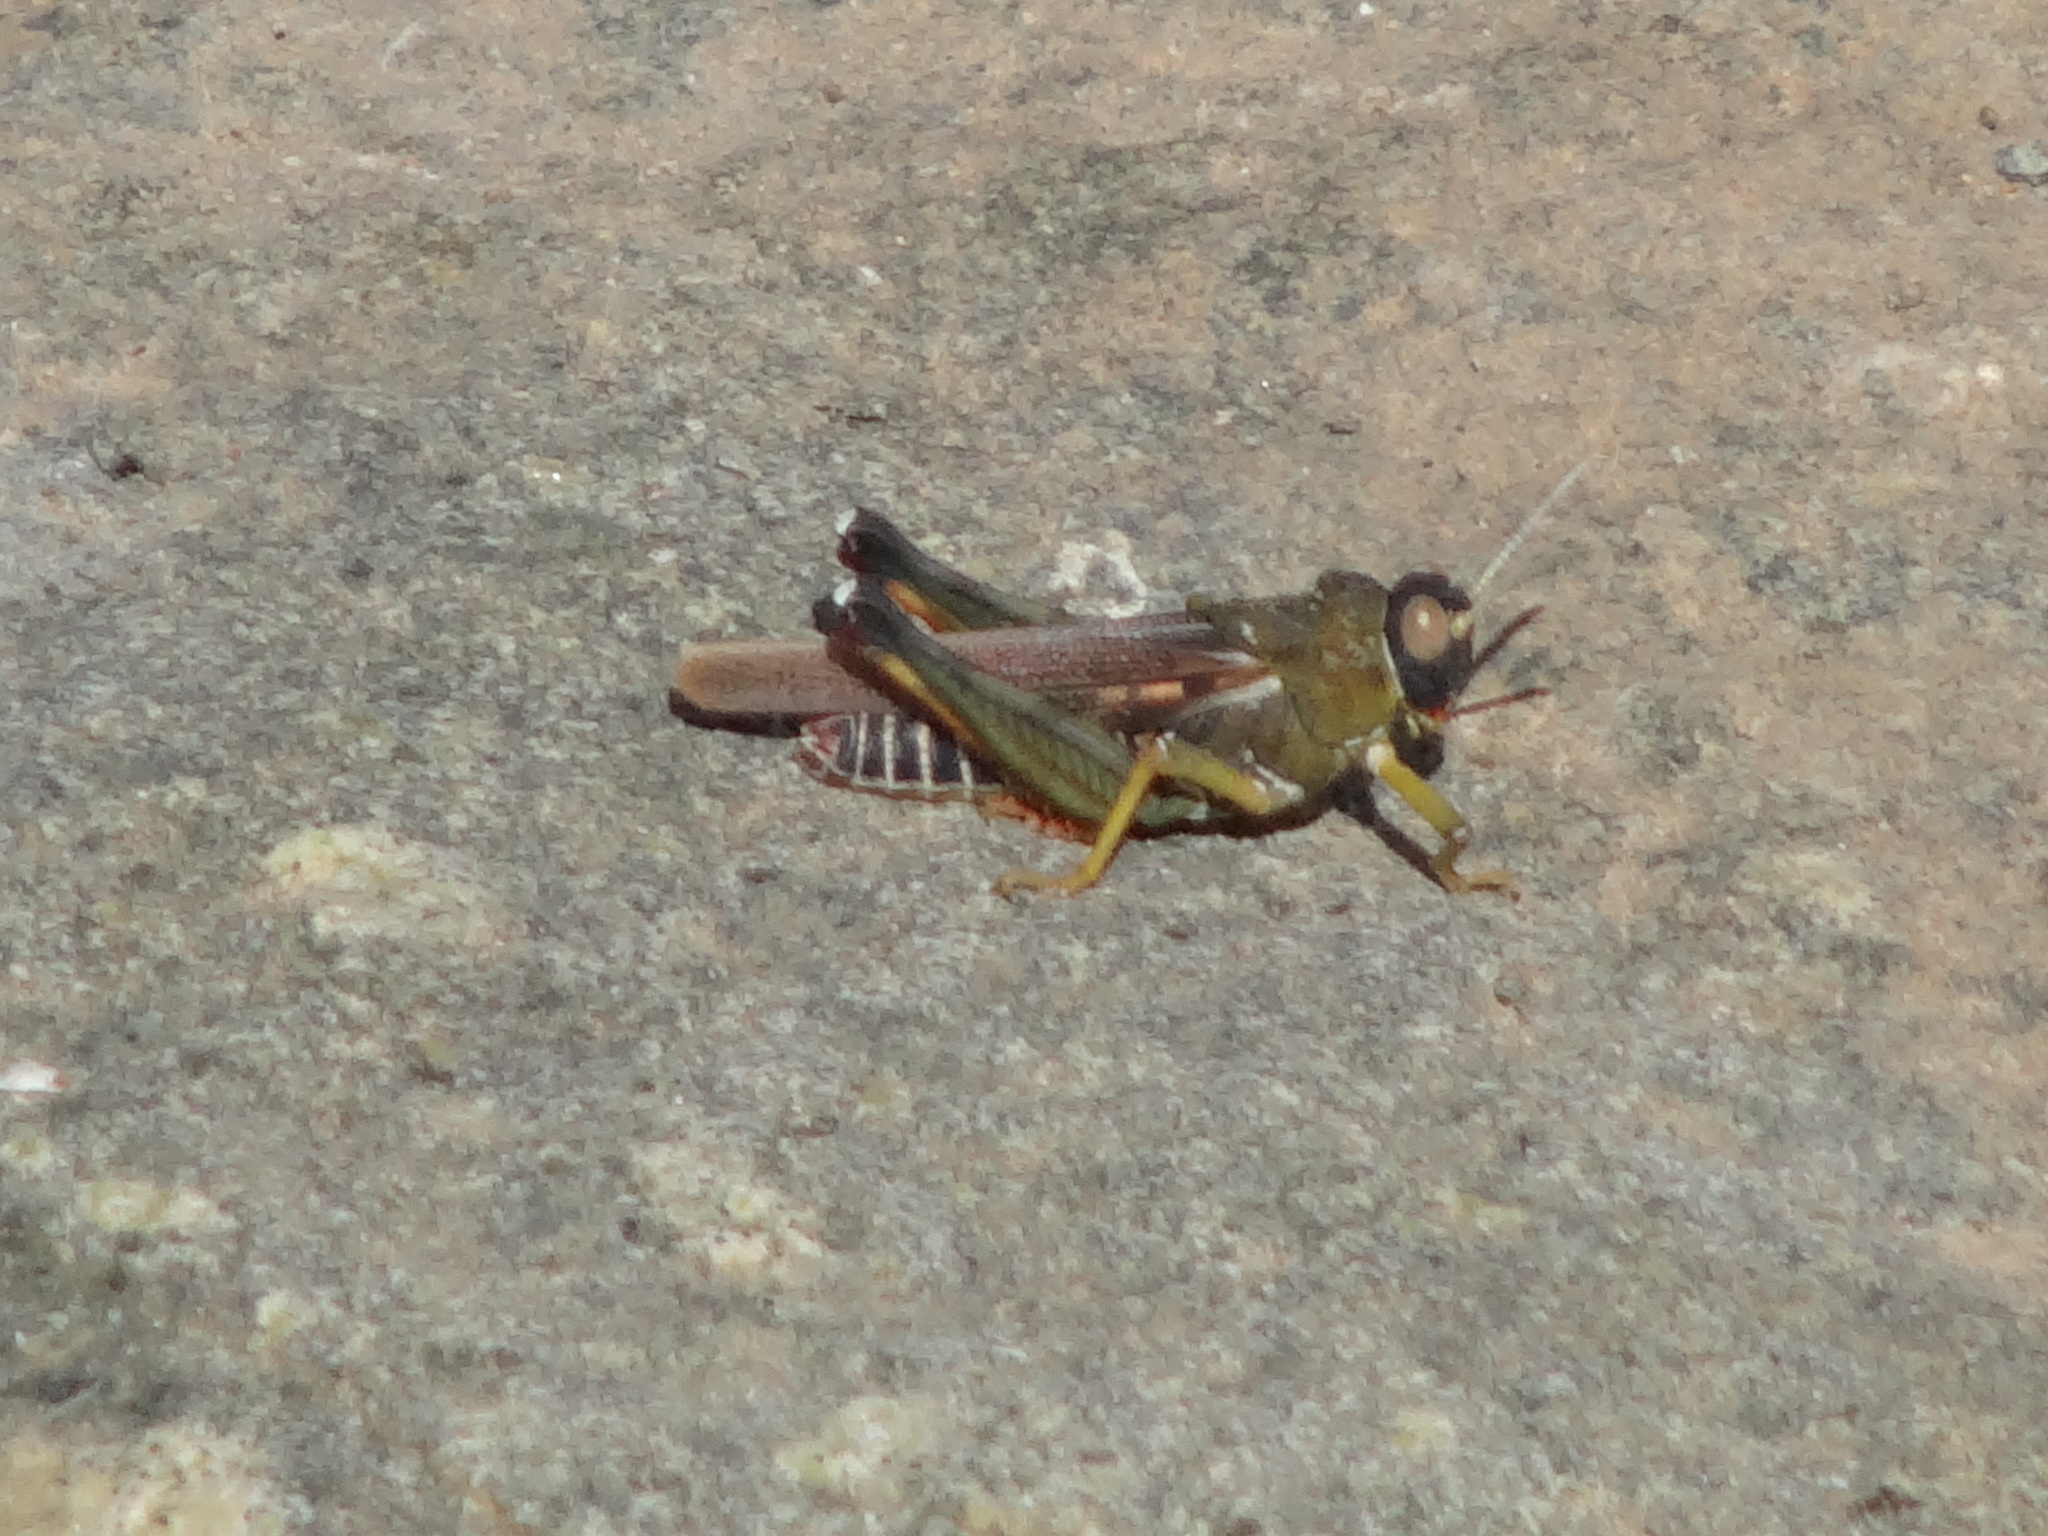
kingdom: Animalia
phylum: Arthropoda
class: Insecta
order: Orthoptera
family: Dericorythidae
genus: Dericorys
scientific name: Dericorys lobata
